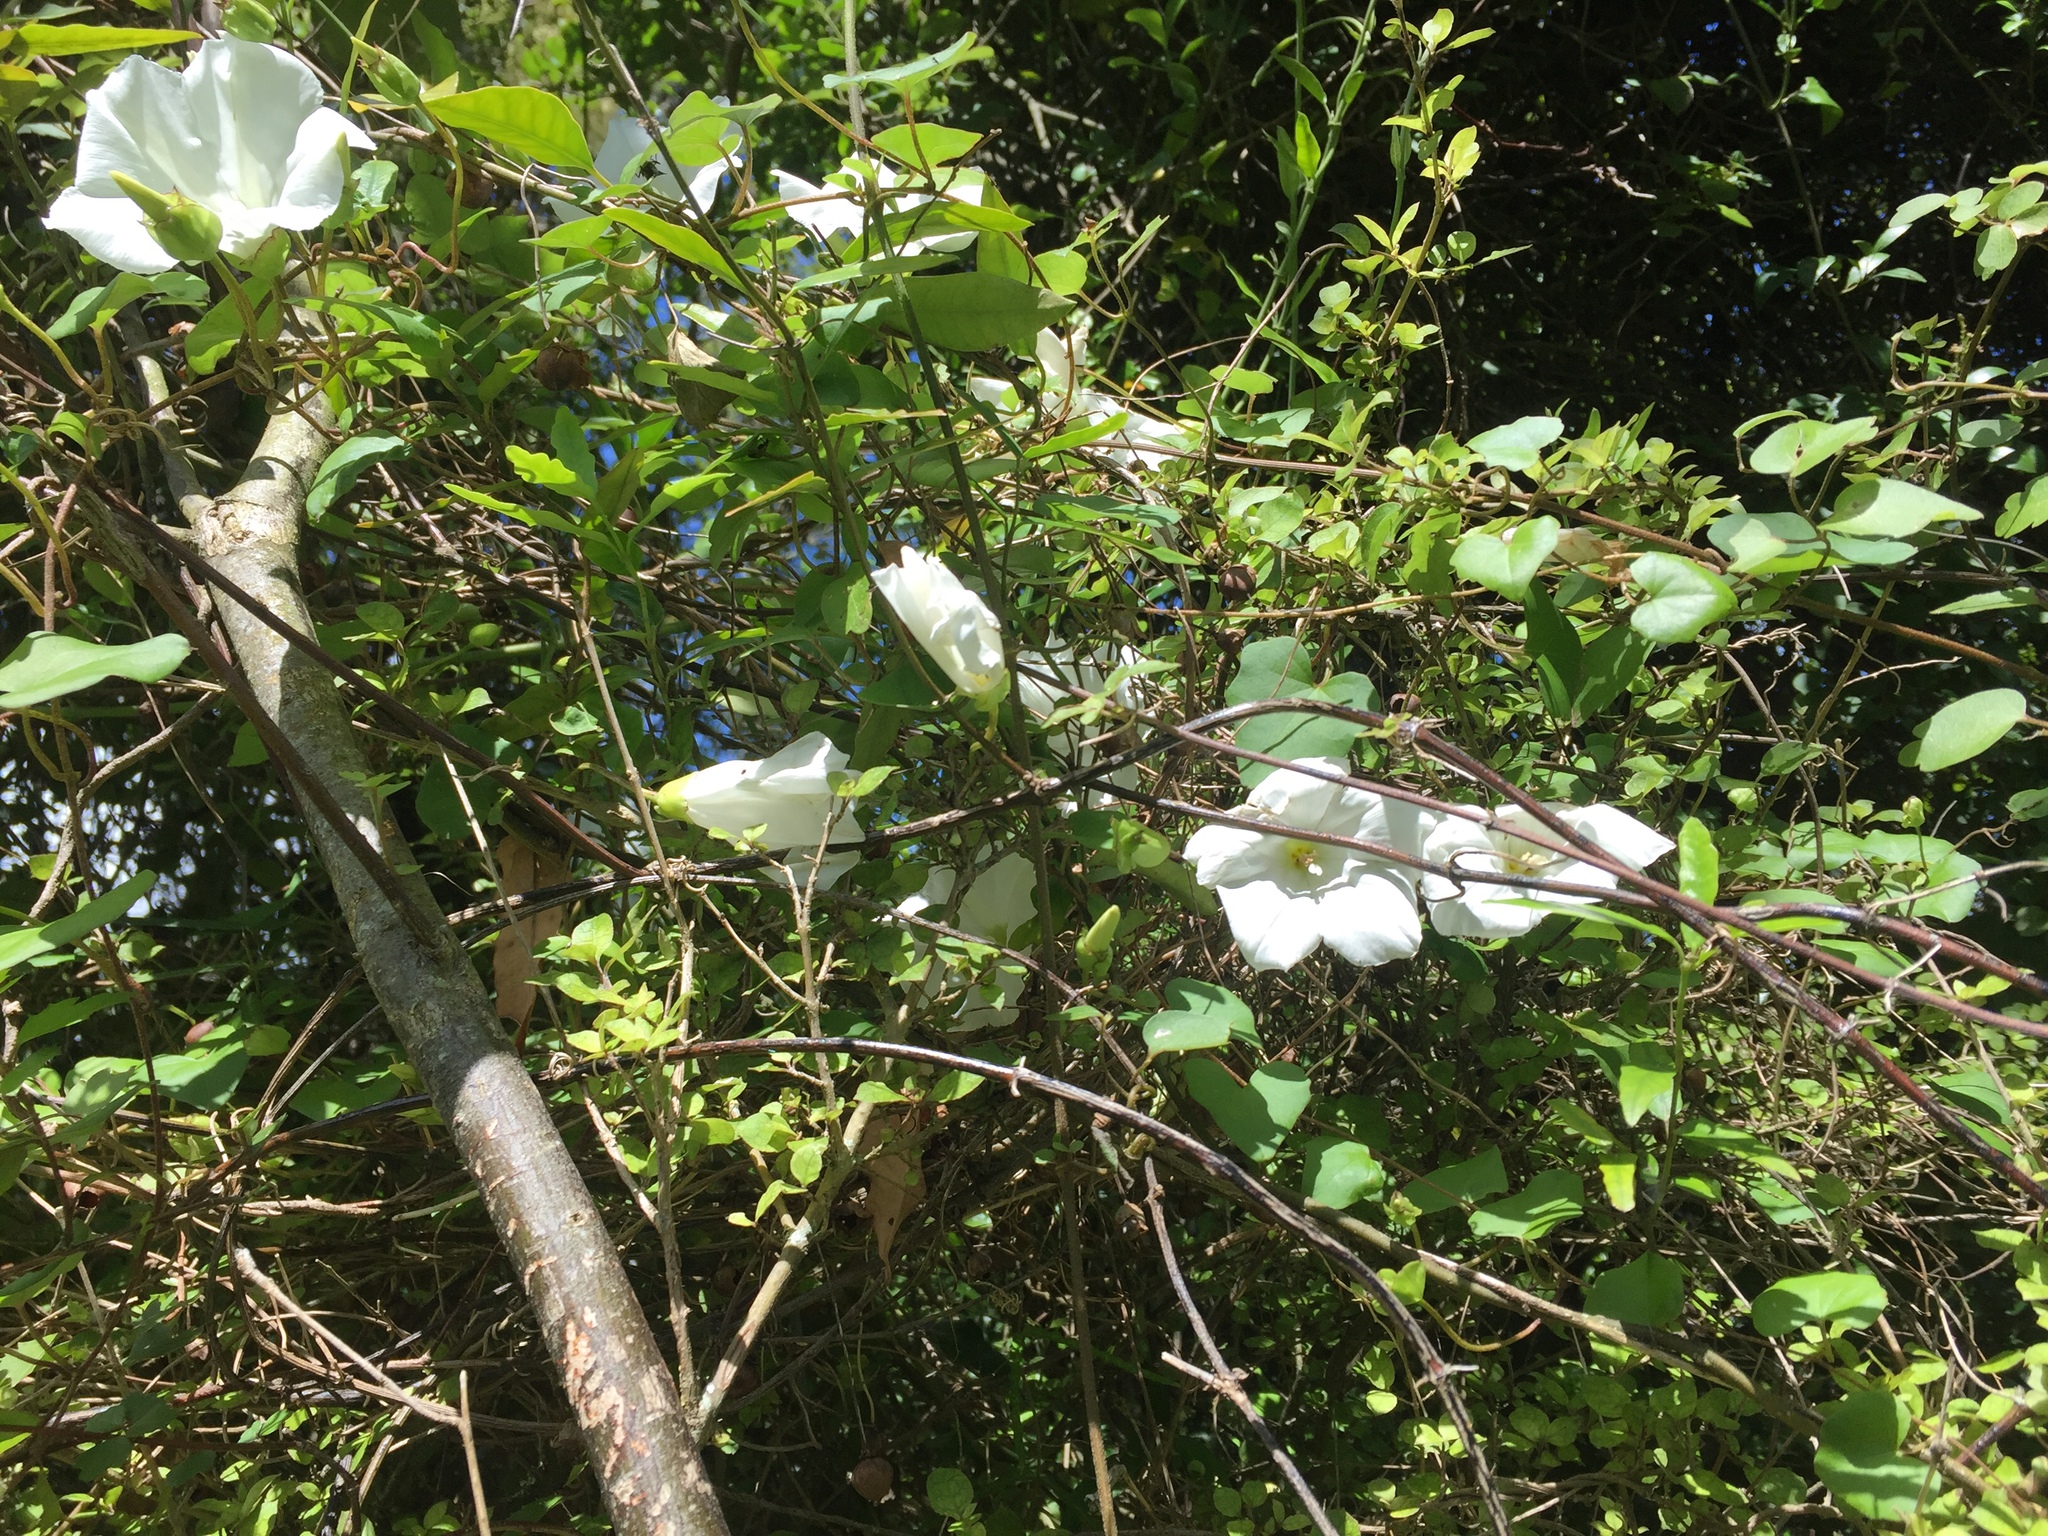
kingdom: Plantae
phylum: Tracheophyta
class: Magnoliopsida
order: Solanales
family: Convolvulaceae
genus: Calystegia
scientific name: Calystegia tuguriorum
